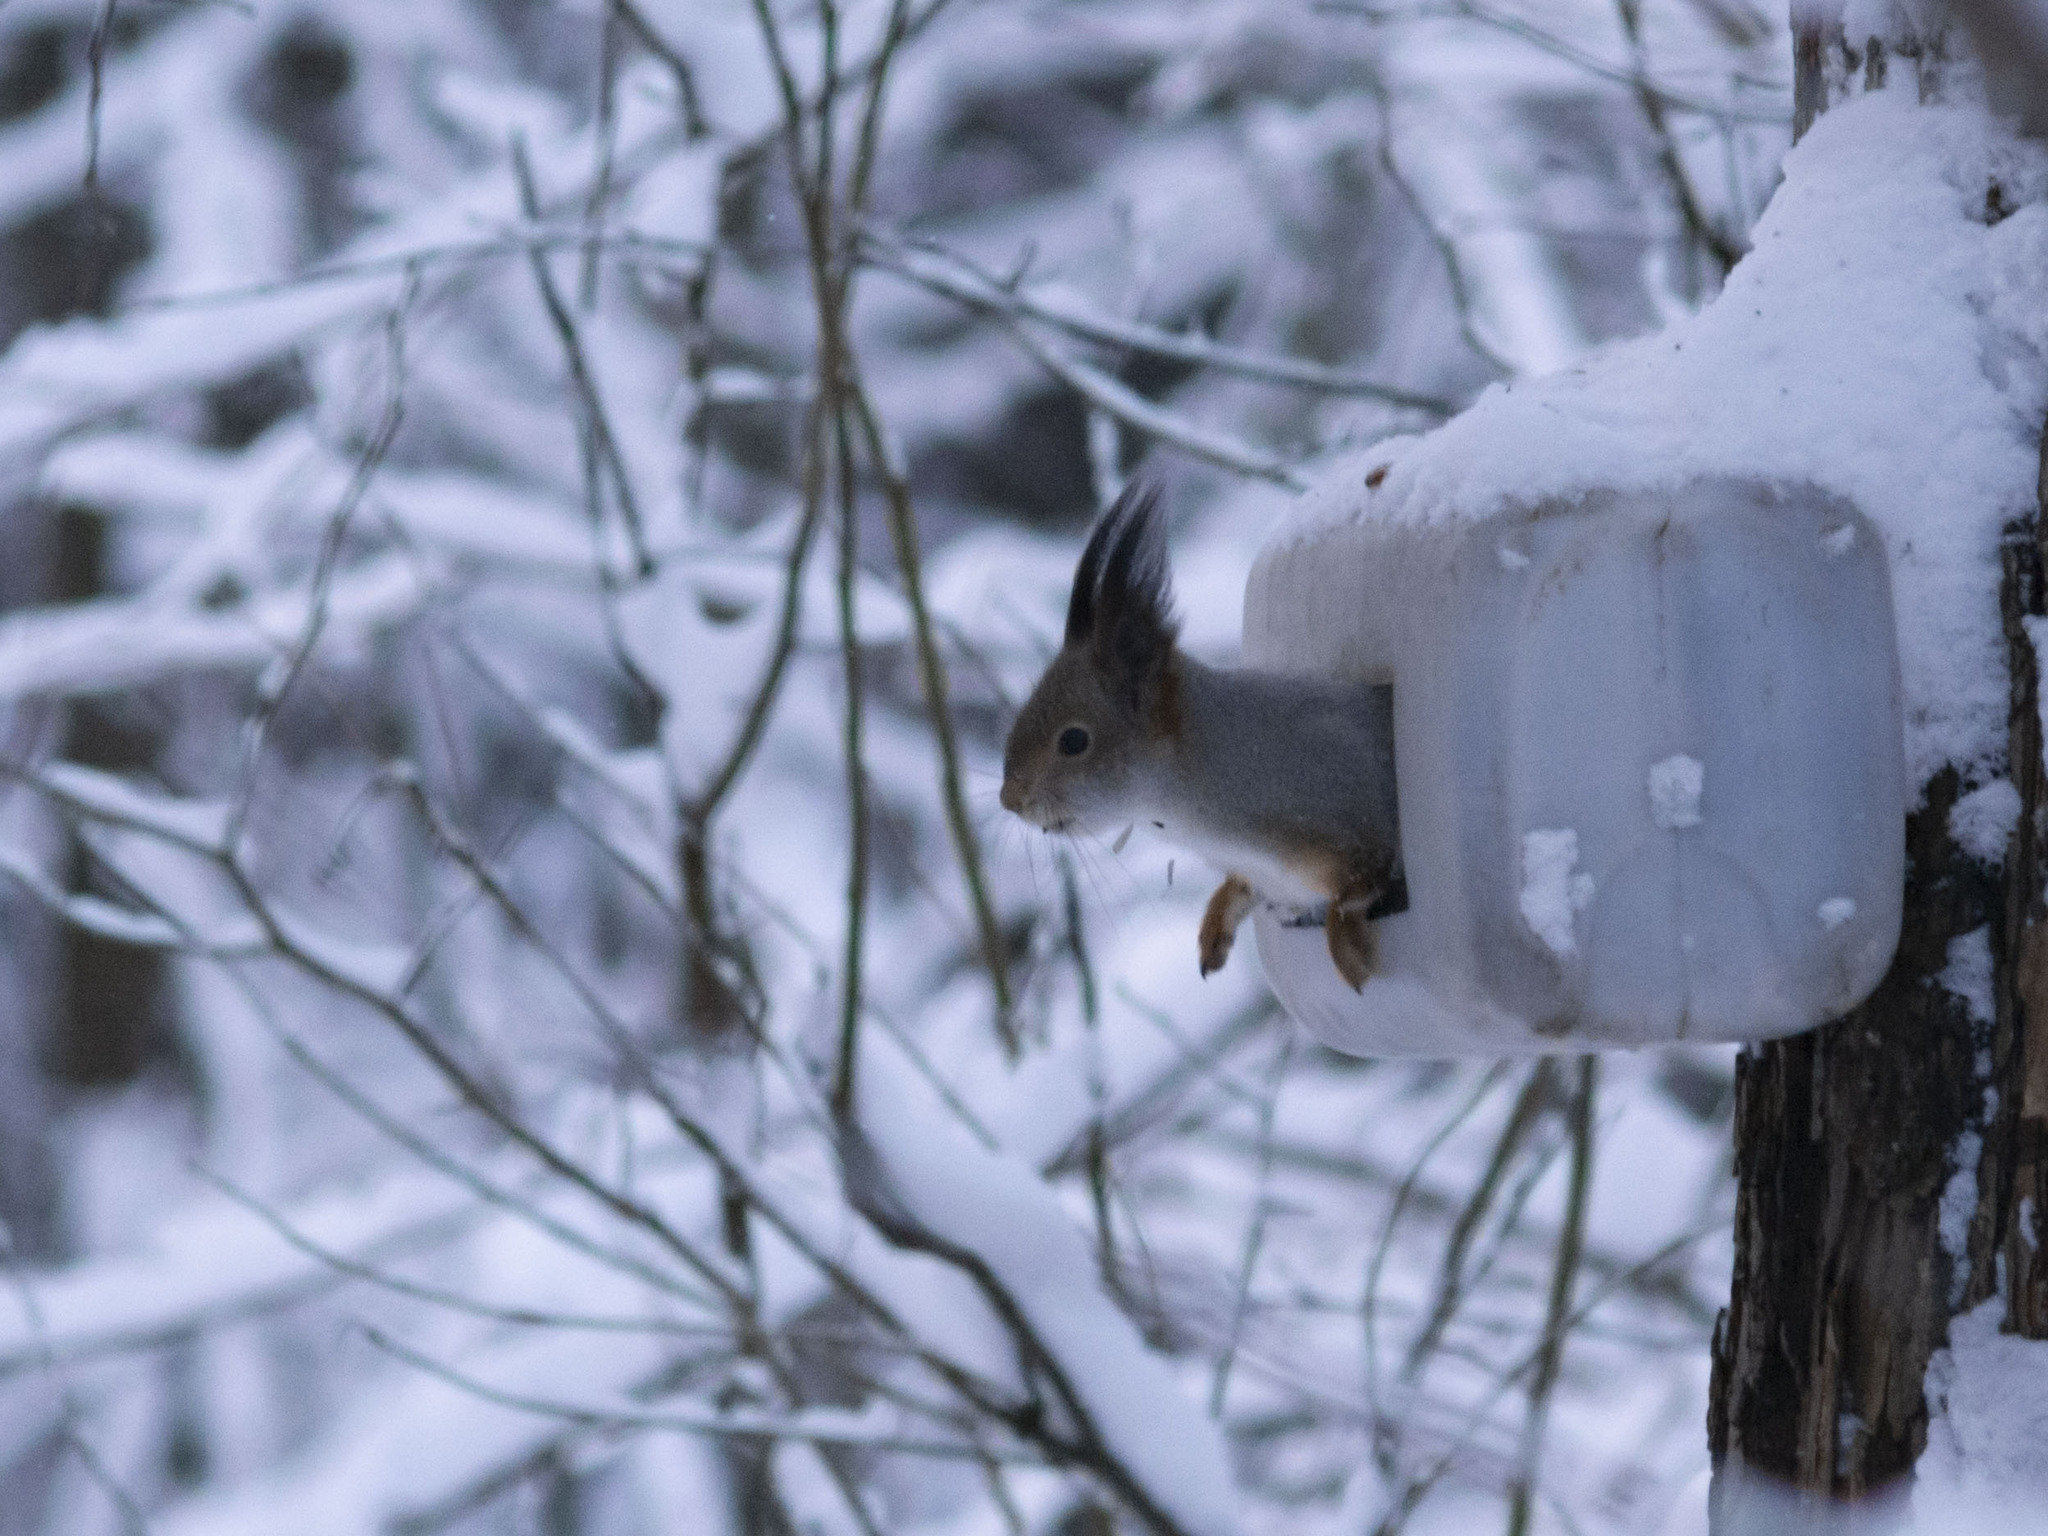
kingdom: Animalia
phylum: Chordata
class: Mammalia
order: Rodentia
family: Sciuridae
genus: Sciurus
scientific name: Sciurus vulgaris
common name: Eurasian red squirrel
